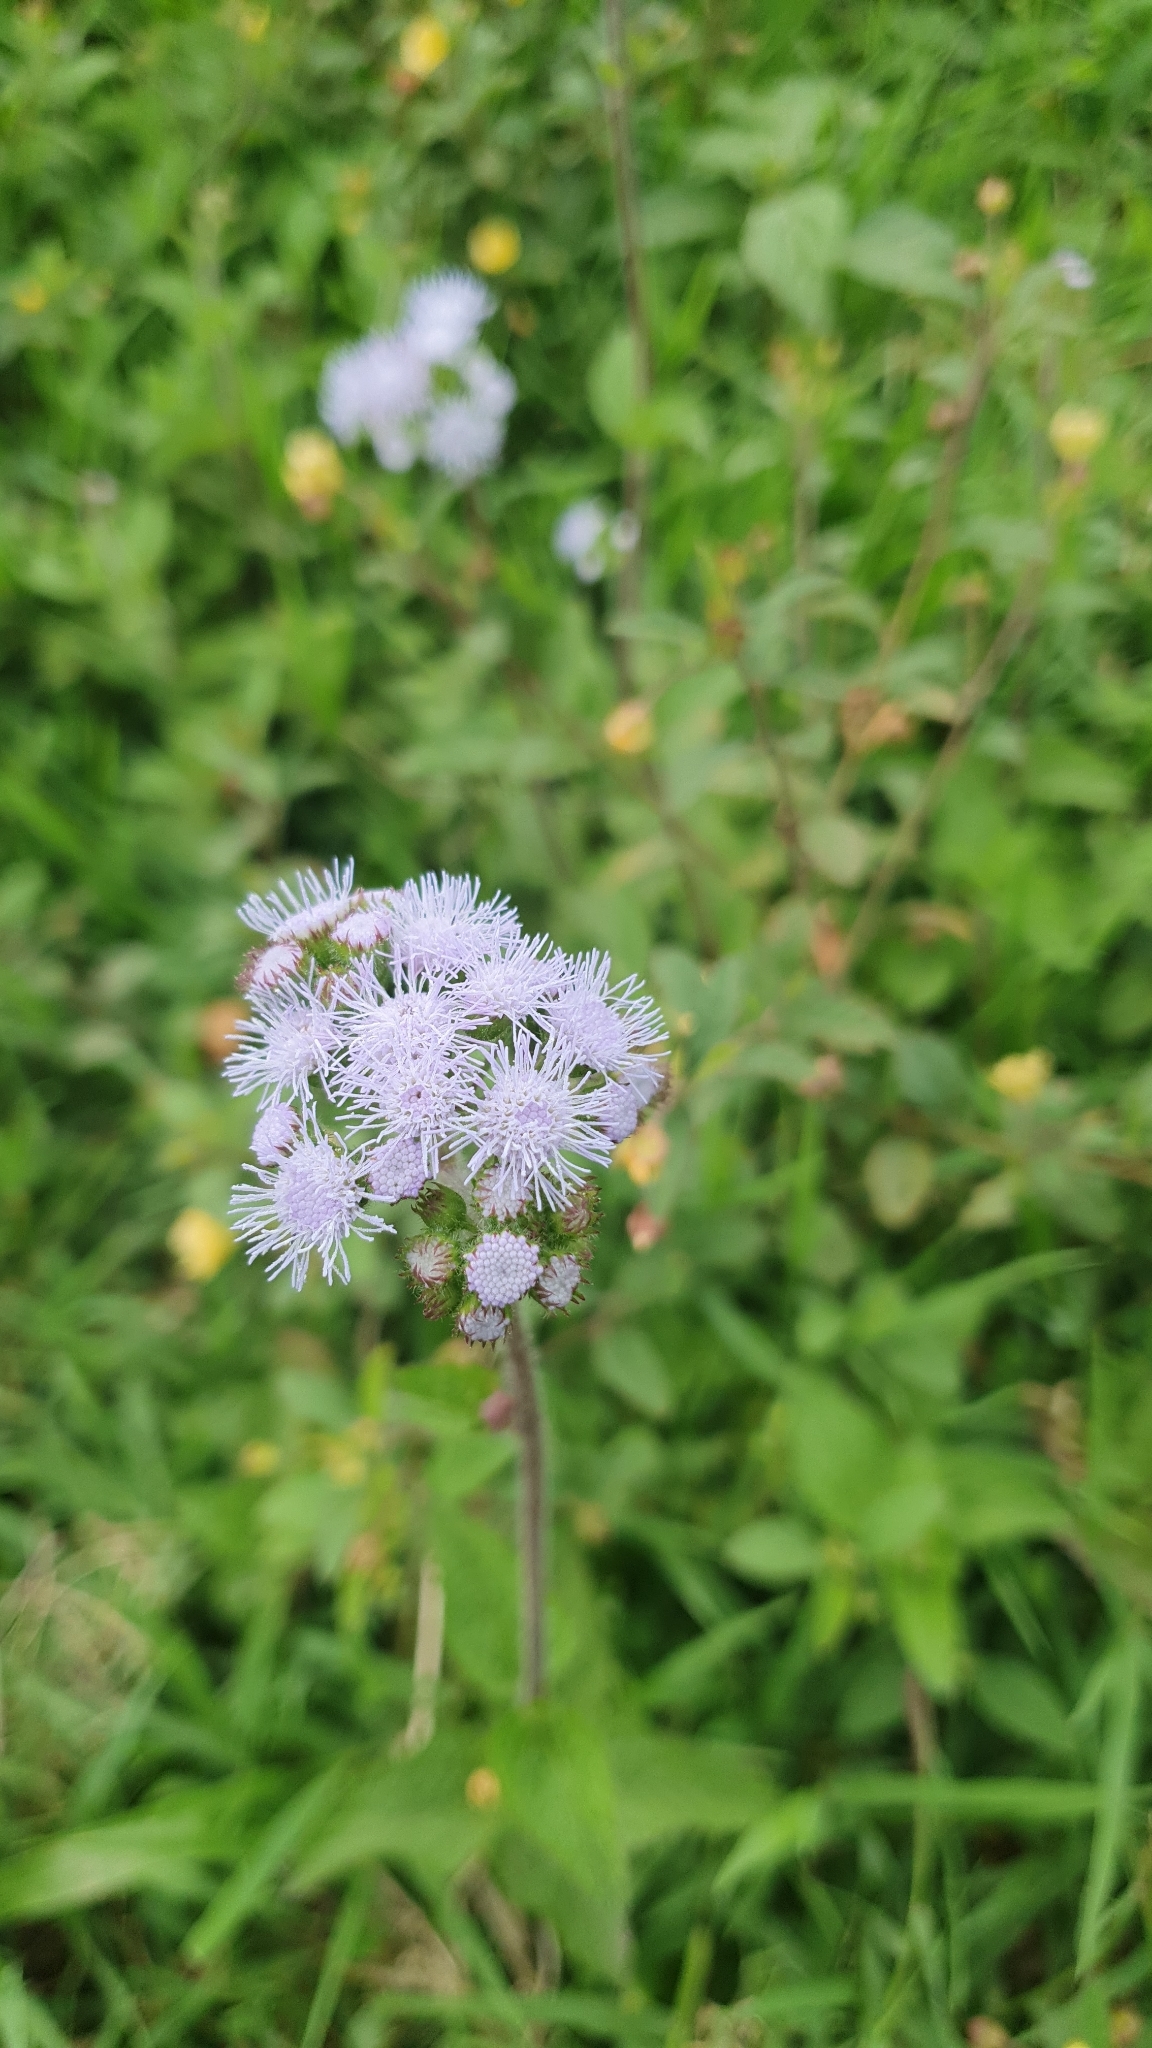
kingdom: Plantae
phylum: Tracheophyta
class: Magnoliopsida
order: Asterales
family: Asteraceae
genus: Ageratum
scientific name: Ageratum houstonianum
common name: Bluemink
